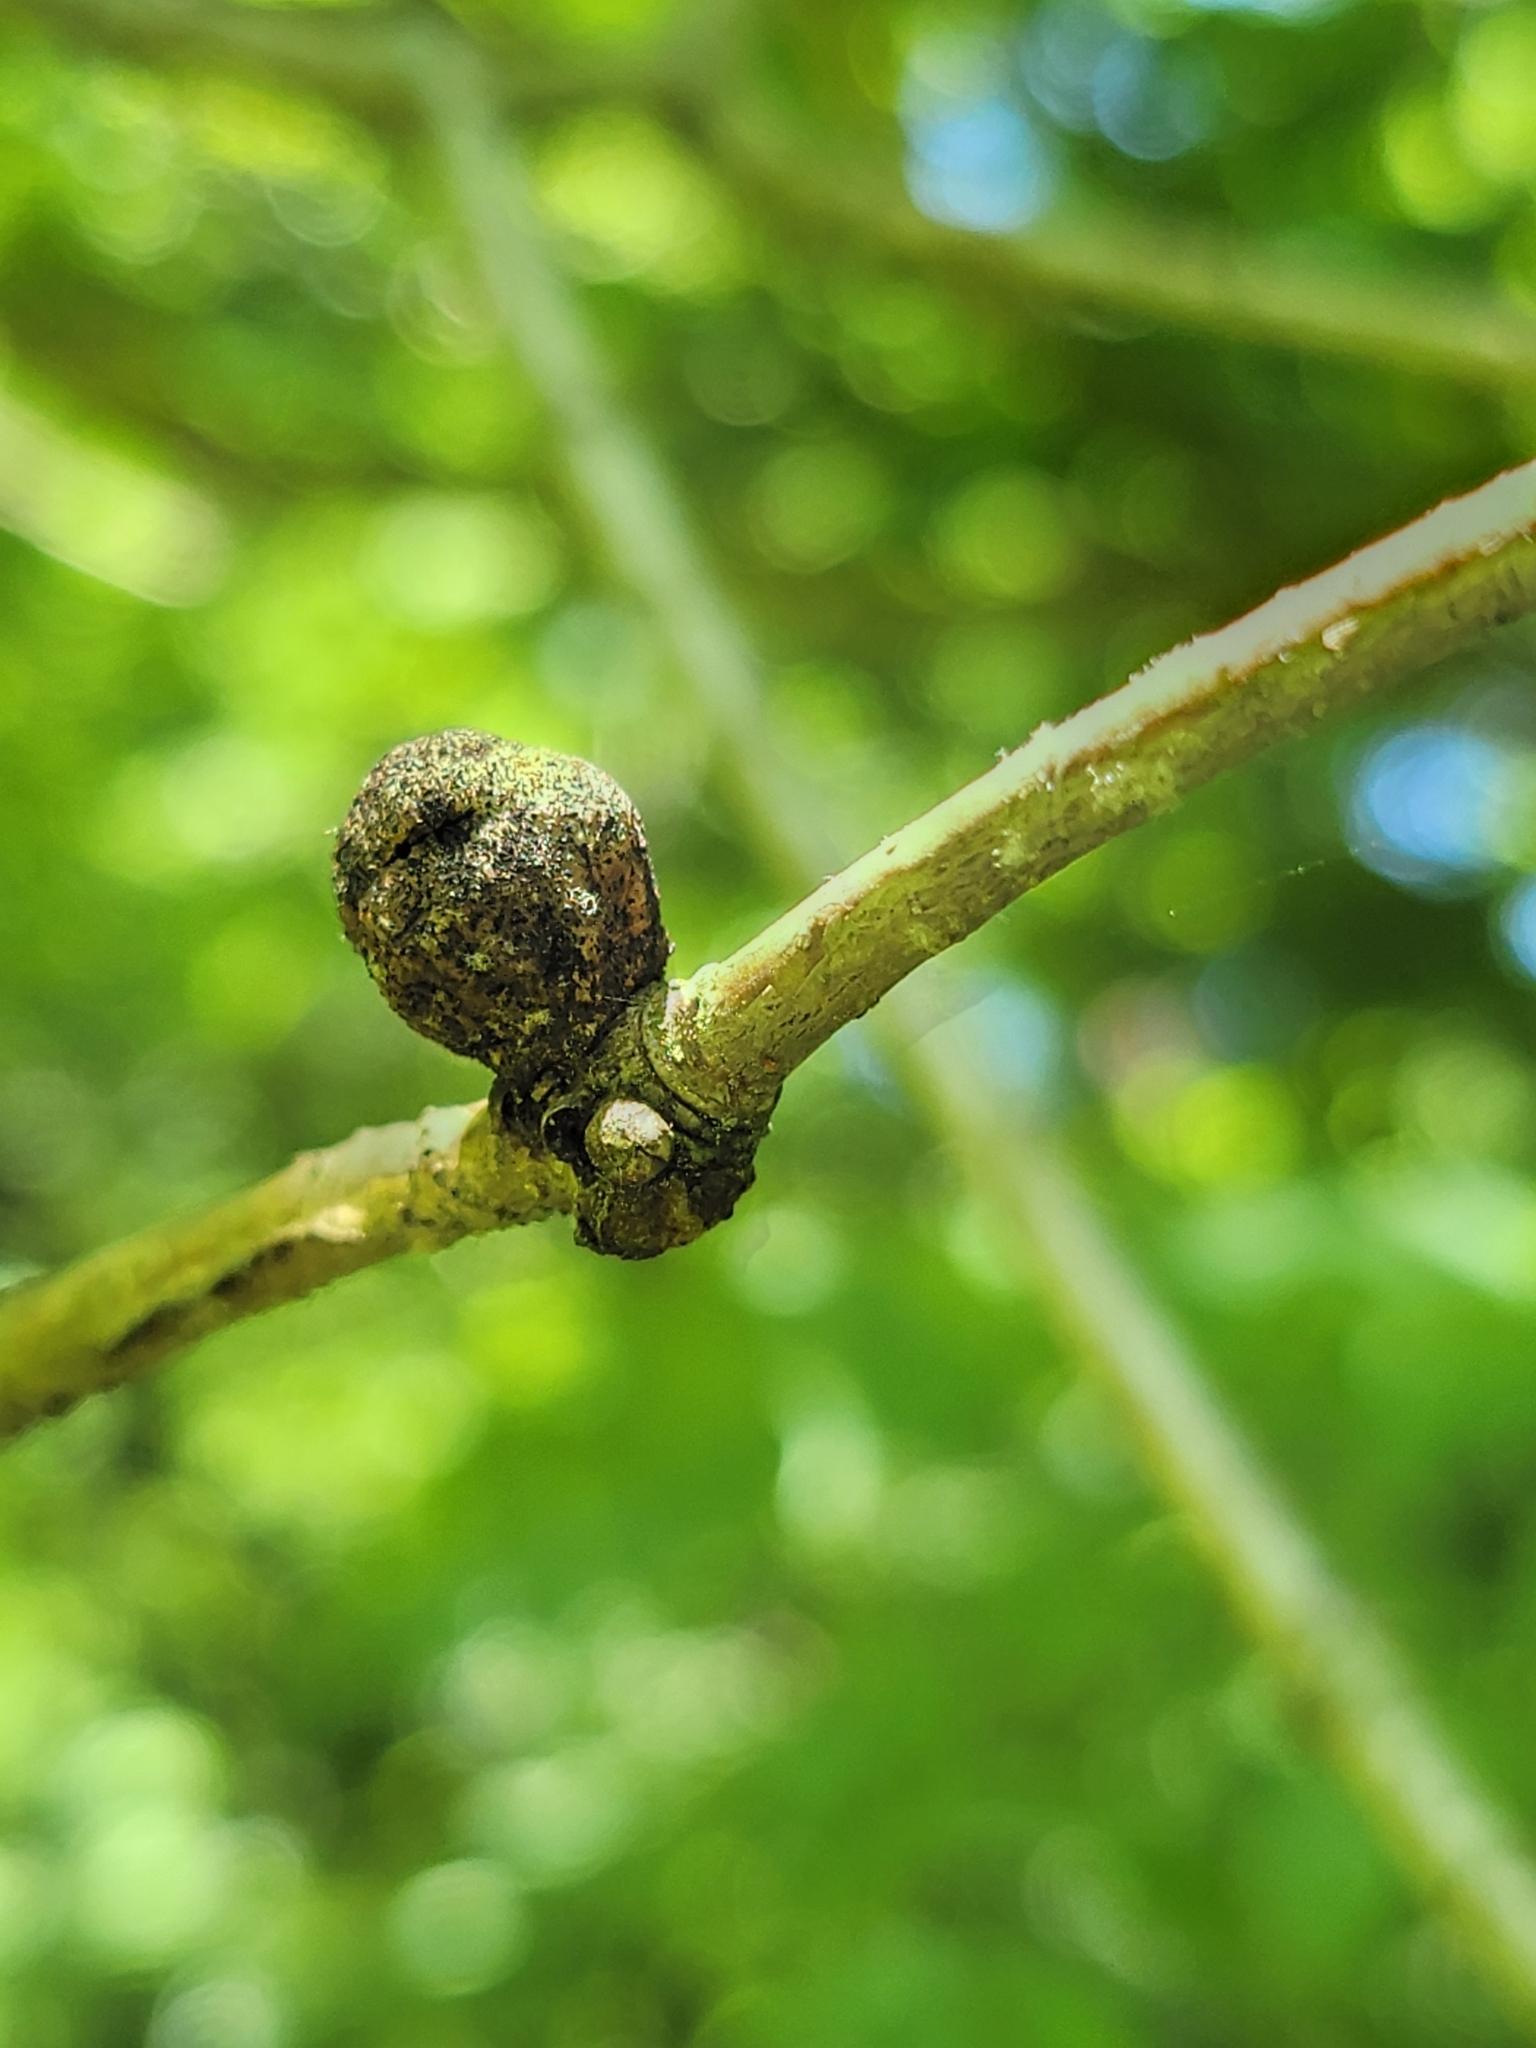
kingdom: Animalia
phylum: Arthropoda
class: Insecta
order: Hymenoptera
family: Cynipidae
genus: Disholcaspis
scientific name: Disholcaspis quercusglobulus
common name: Round bullet gall wasp
